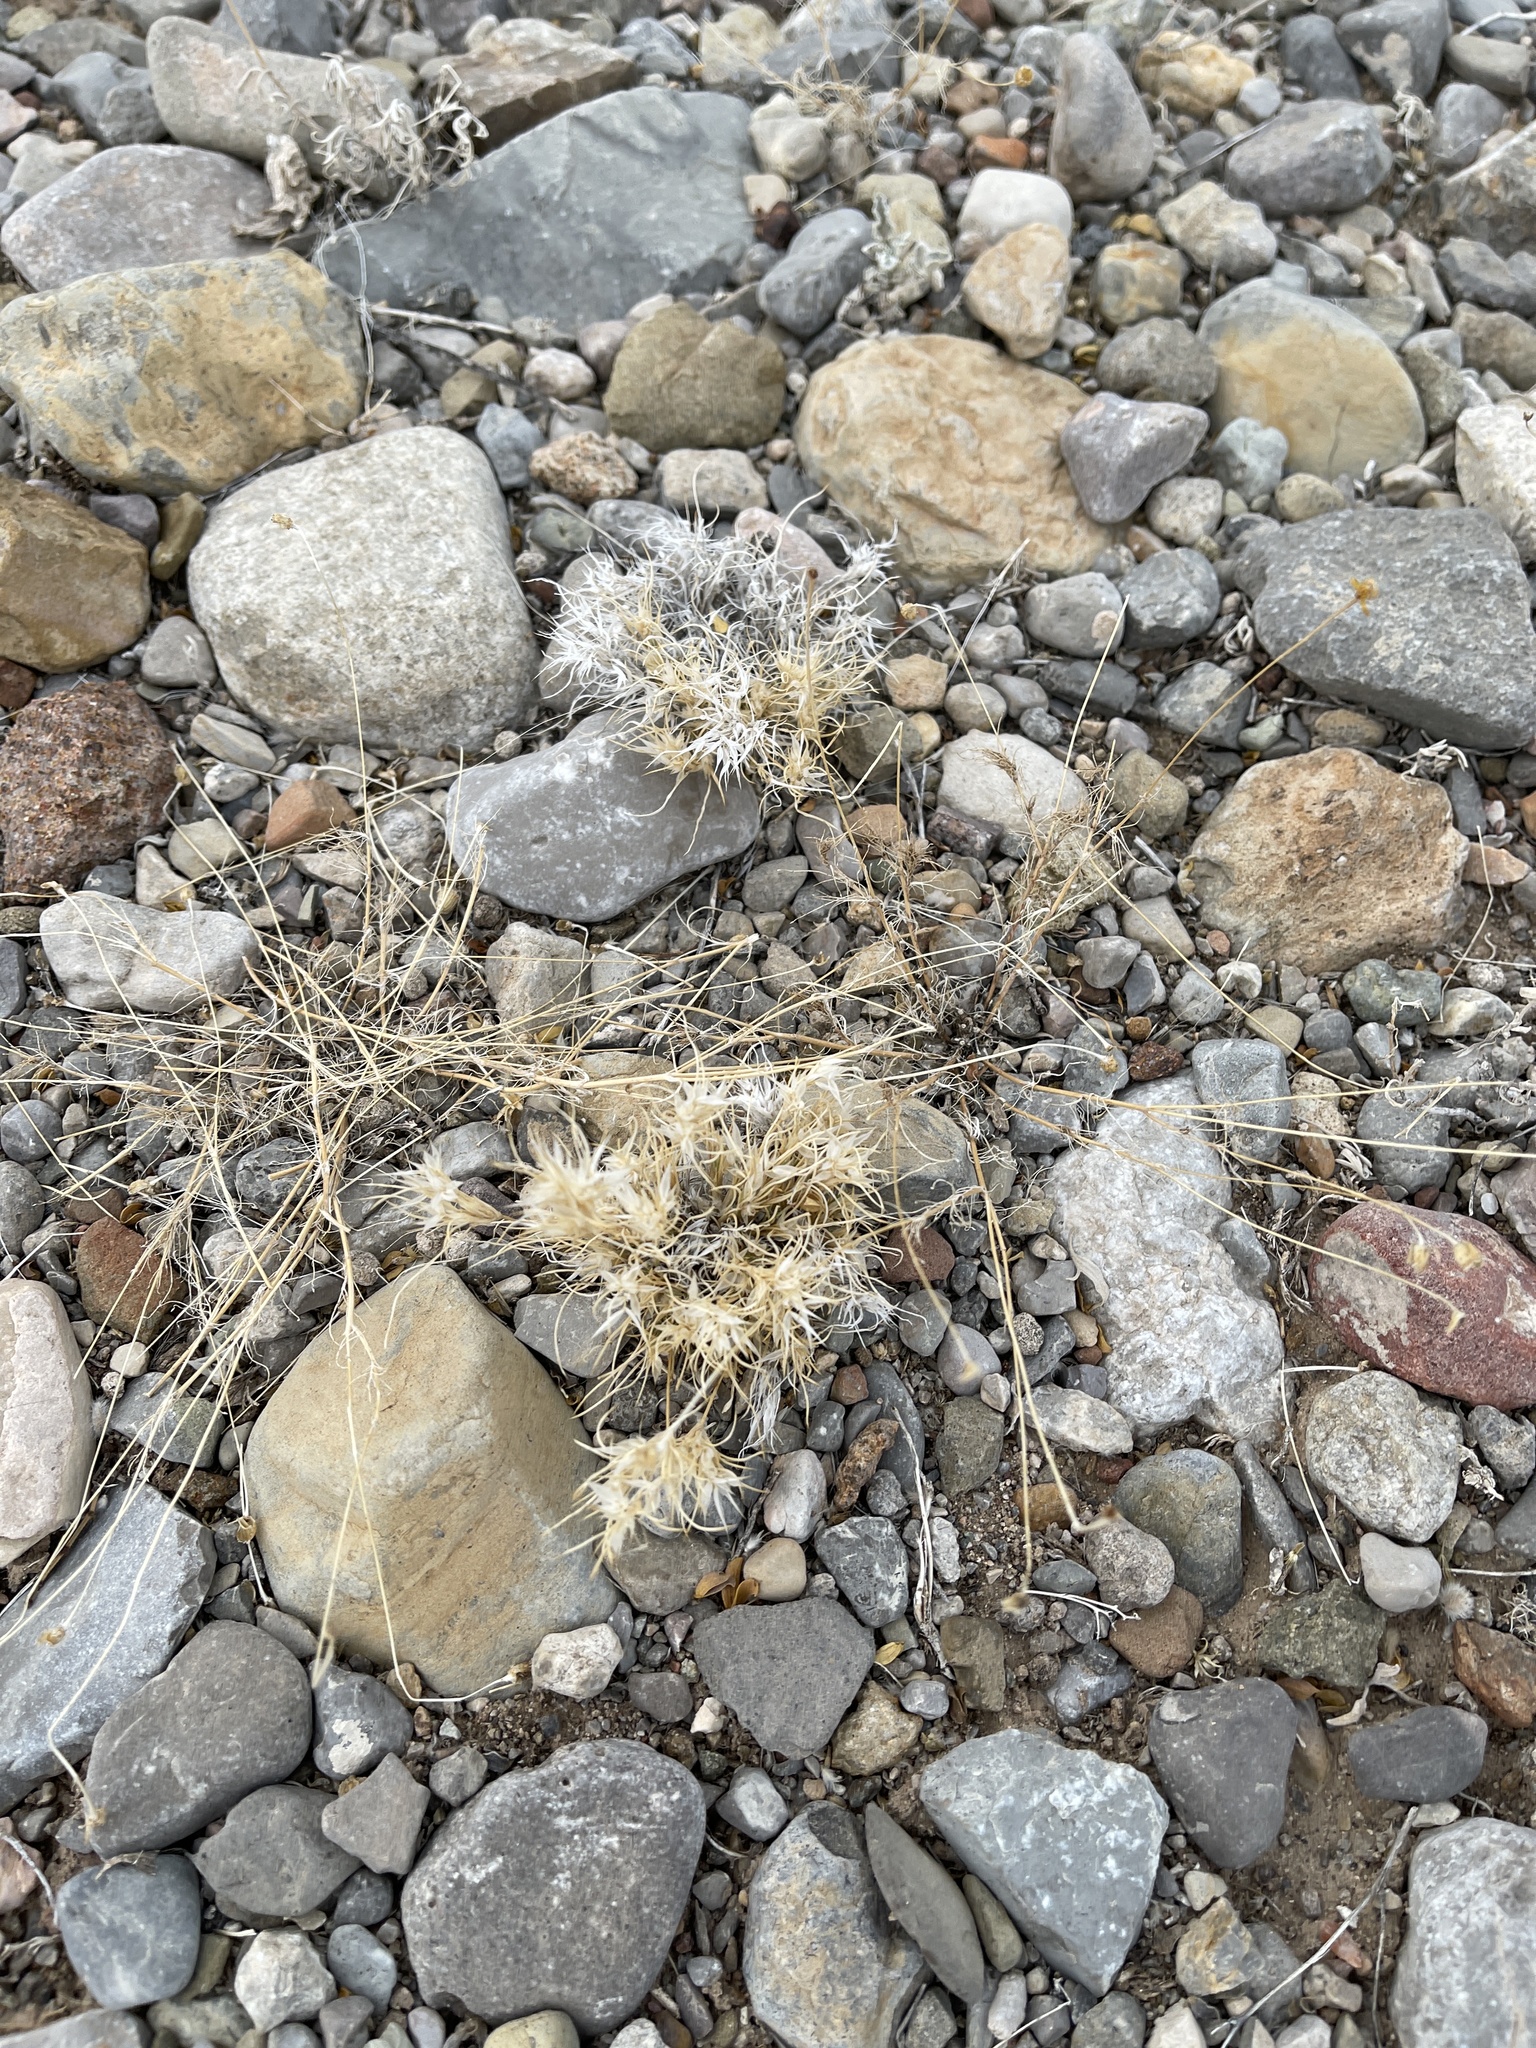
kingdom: Plantae
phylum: Tracheophyta
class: Liliopsida
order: Poales
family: Poaceae
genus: Dasyochloa
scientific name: Dasyochloa pulchella
